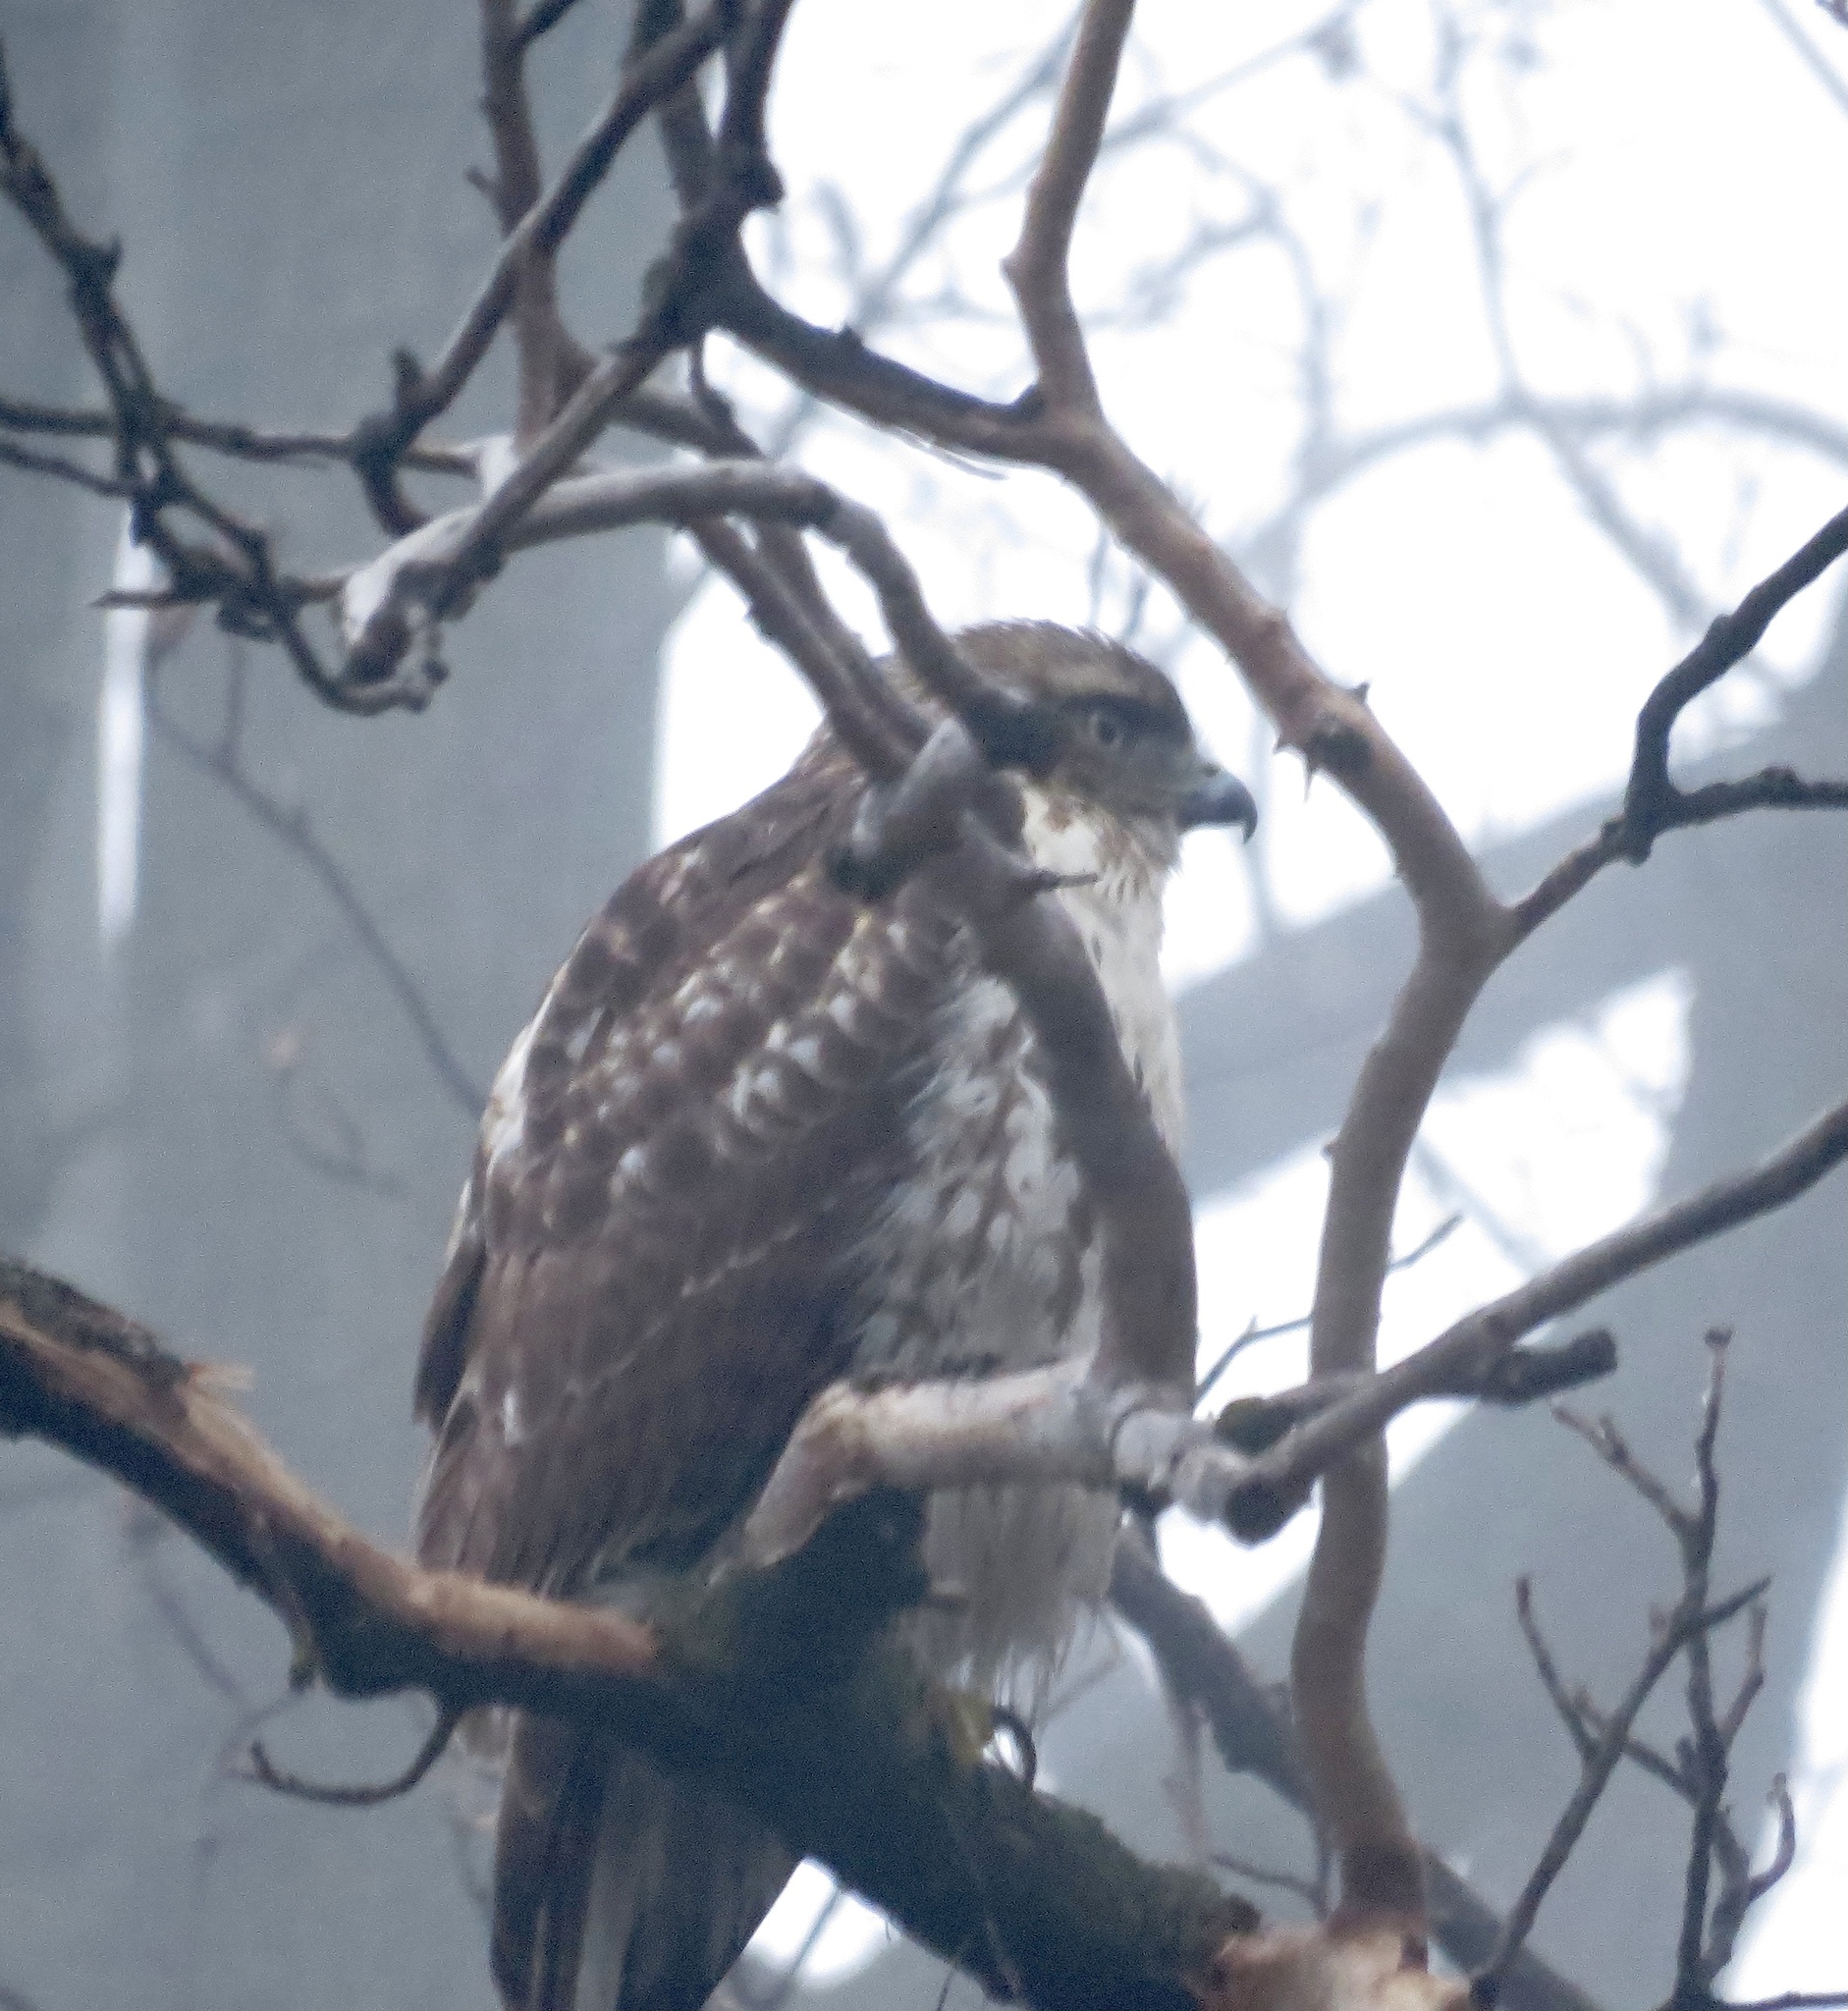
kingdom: Animalia
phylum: Chordata
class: Aves
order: Accipitriformes
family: Accipitridae
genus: Buteo
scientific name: Buteo jamaicensis
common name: Red-tailed hawk
